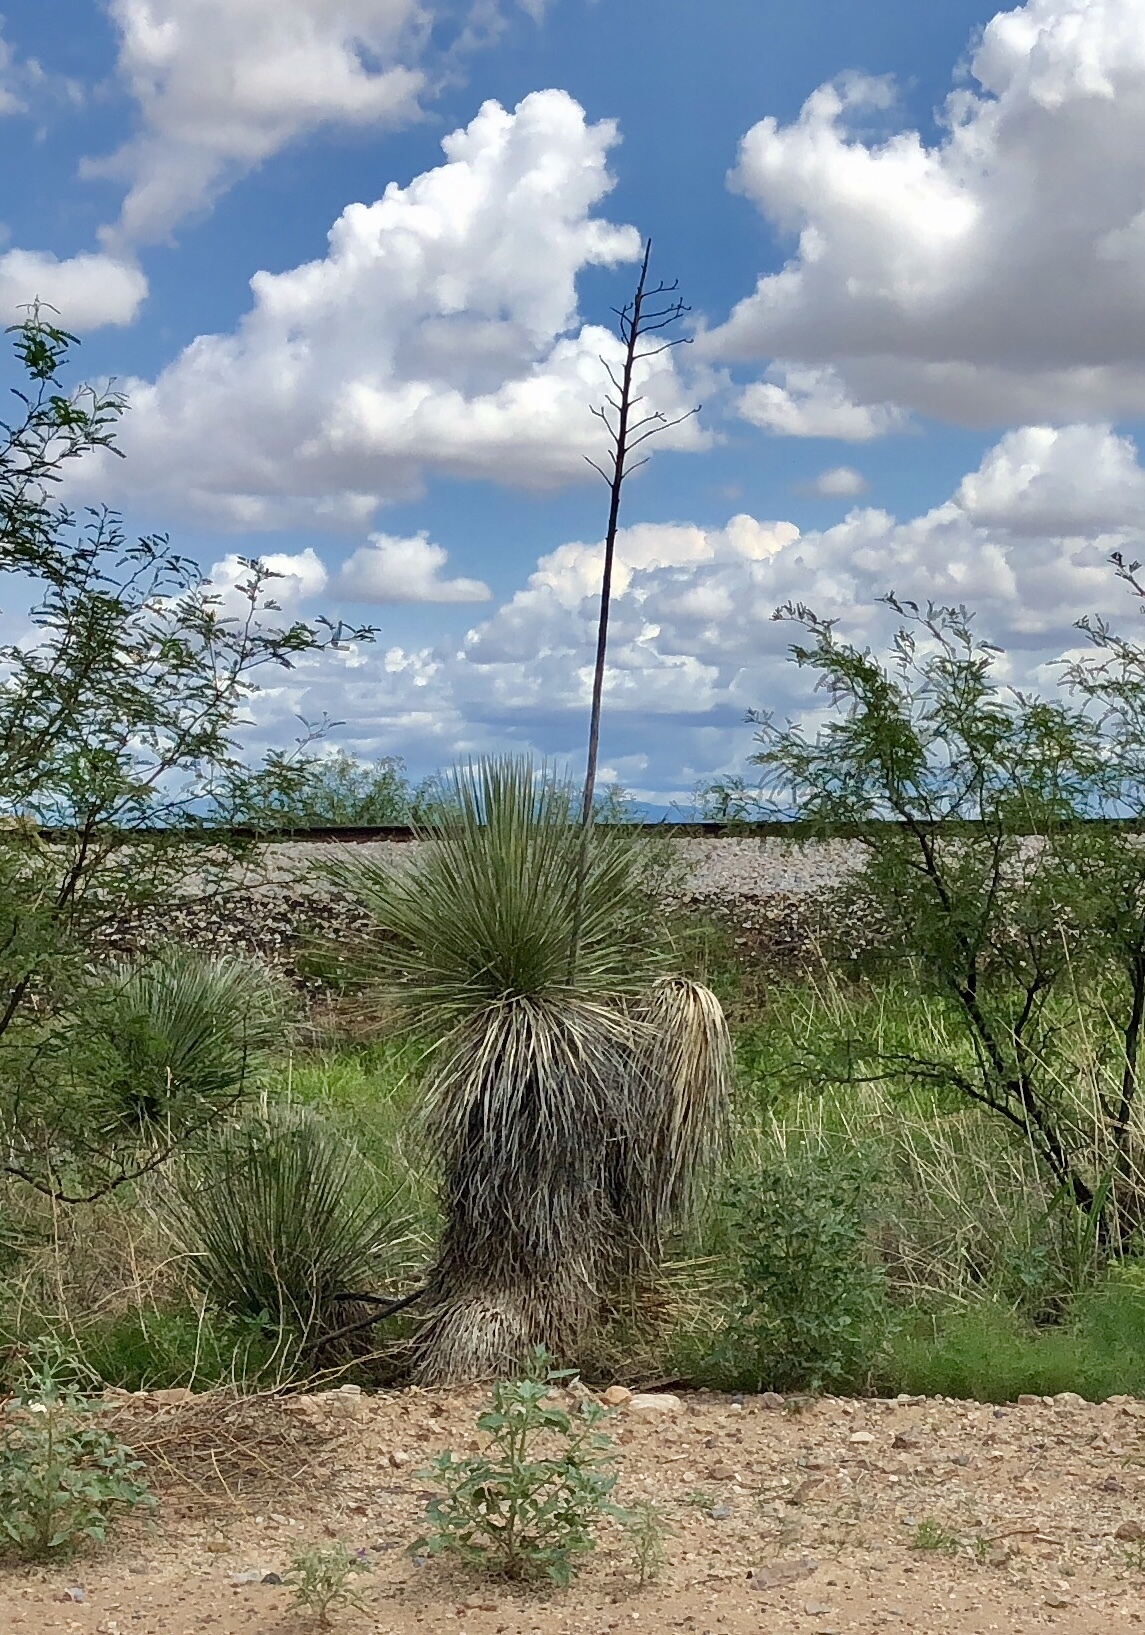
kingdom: Plantae
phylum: Tracheophyta
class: Liliopsida
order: Asparagales
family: Asparagaceae
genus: Yucca
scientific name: Yucca elata
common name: Palmella
